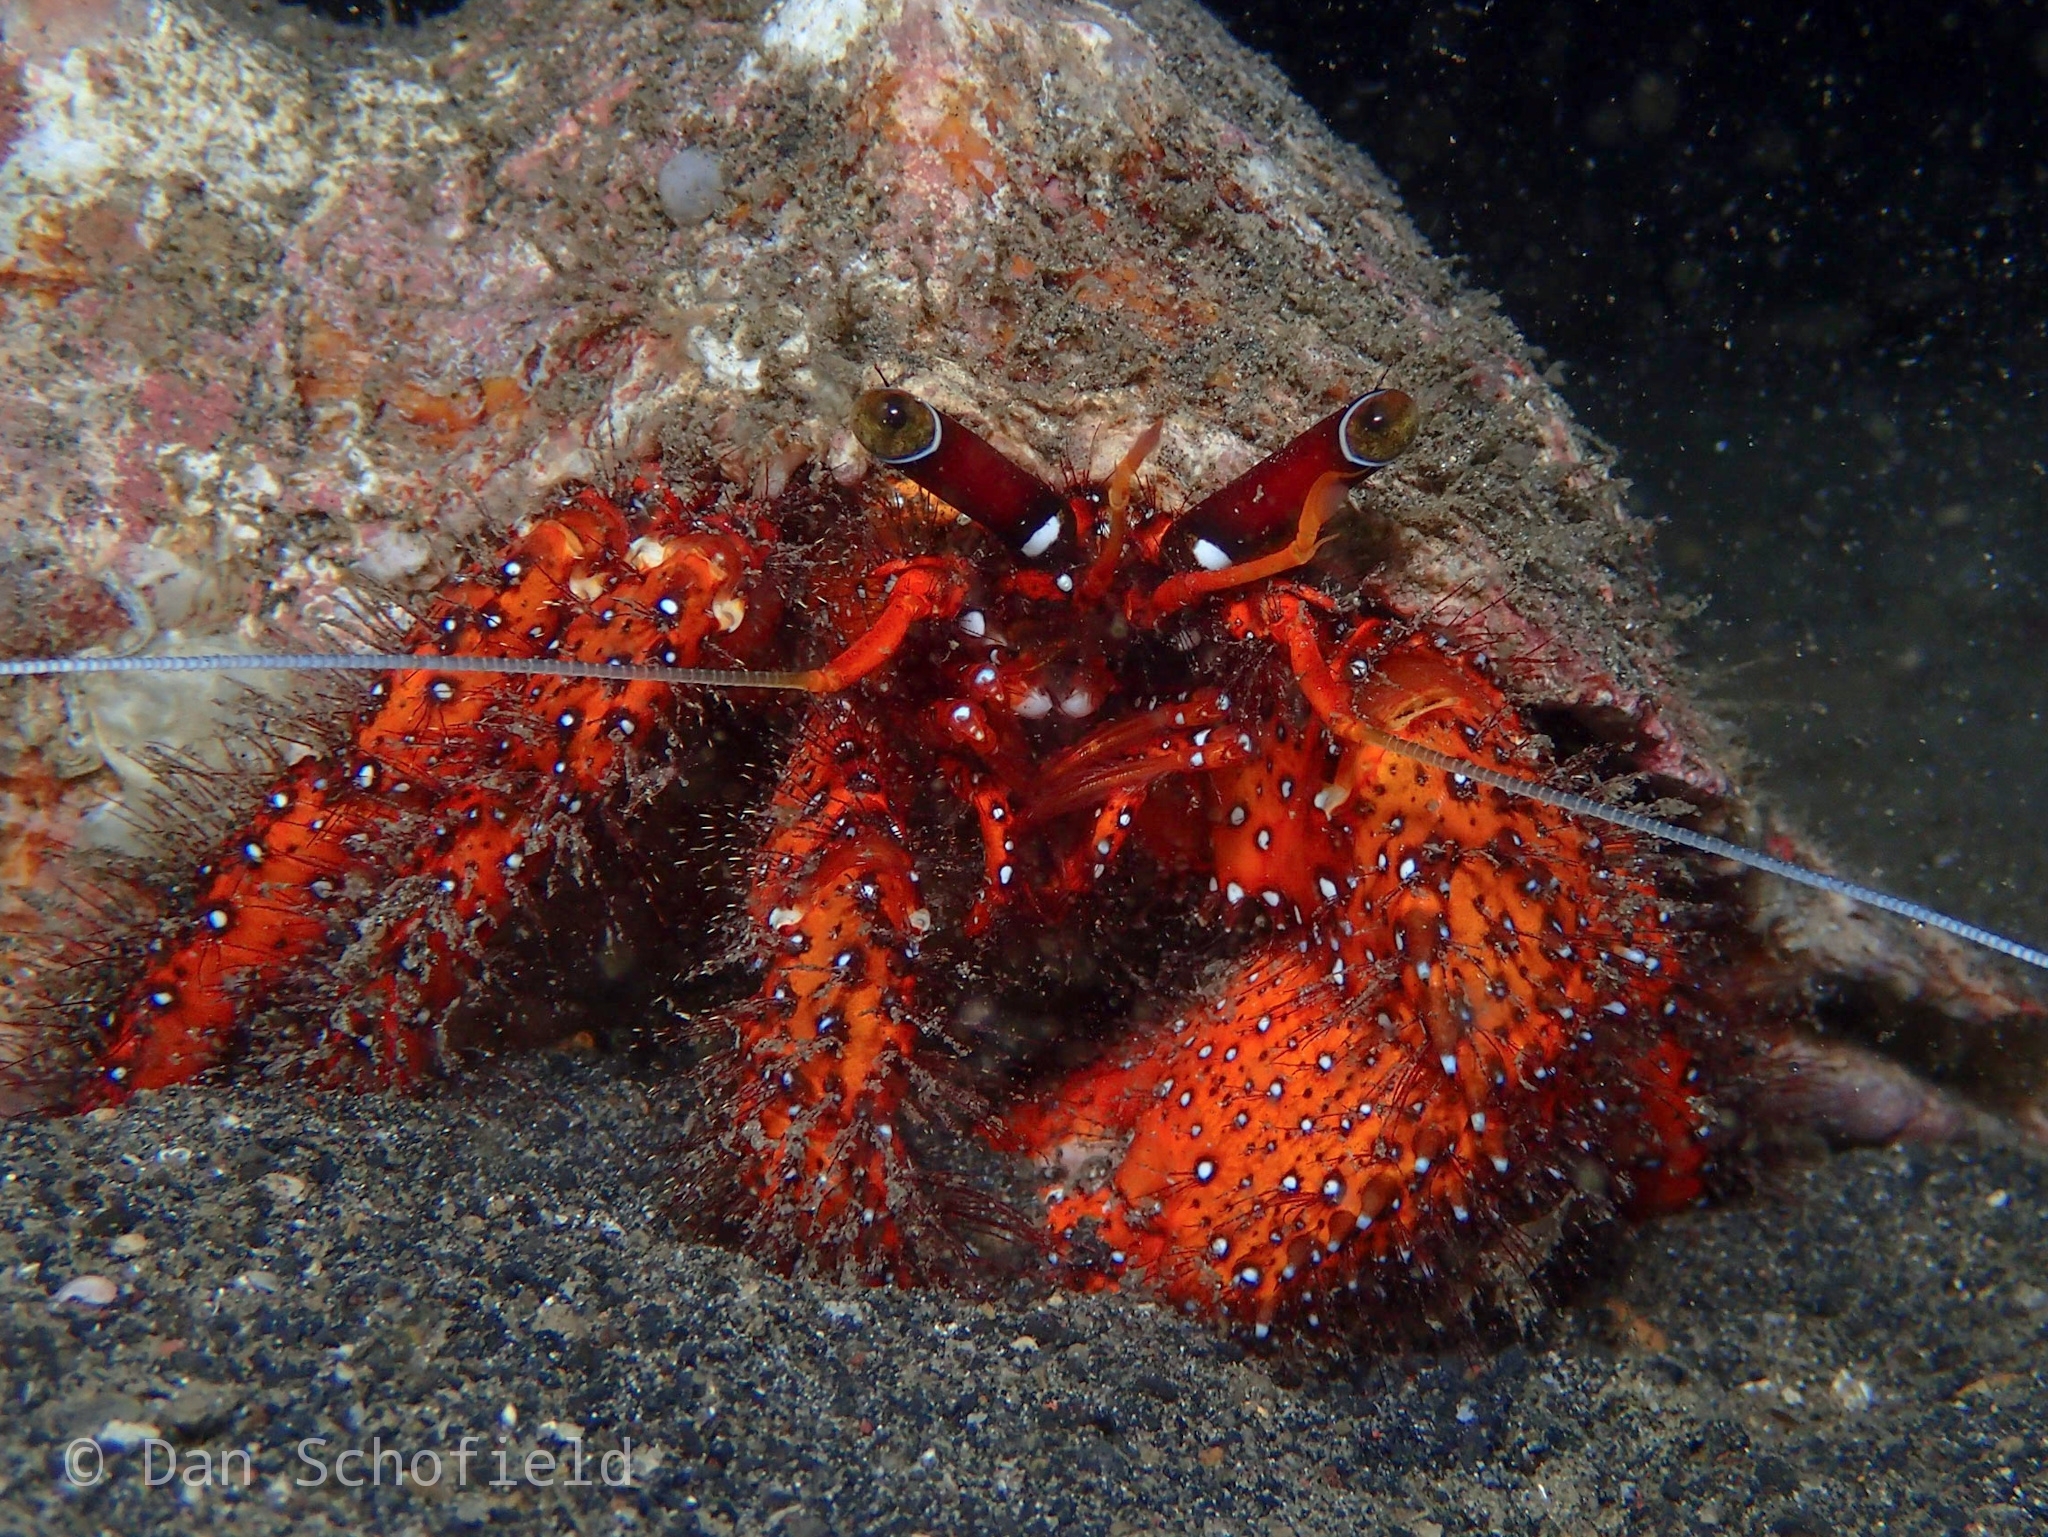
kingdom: Animalia
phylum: Arthropoda
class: Malacostraca
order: Decapoda
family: Diogenidae
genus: Dardanus
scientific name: Dardanus megistos
